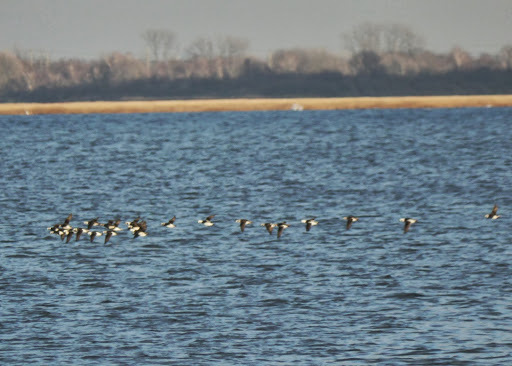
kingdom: Animalia
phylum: Chordata
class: Aves
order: Anseriformes
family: Anatidae
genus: Clangula
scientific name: Clangula hyemalis
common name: Long-tailed duck
